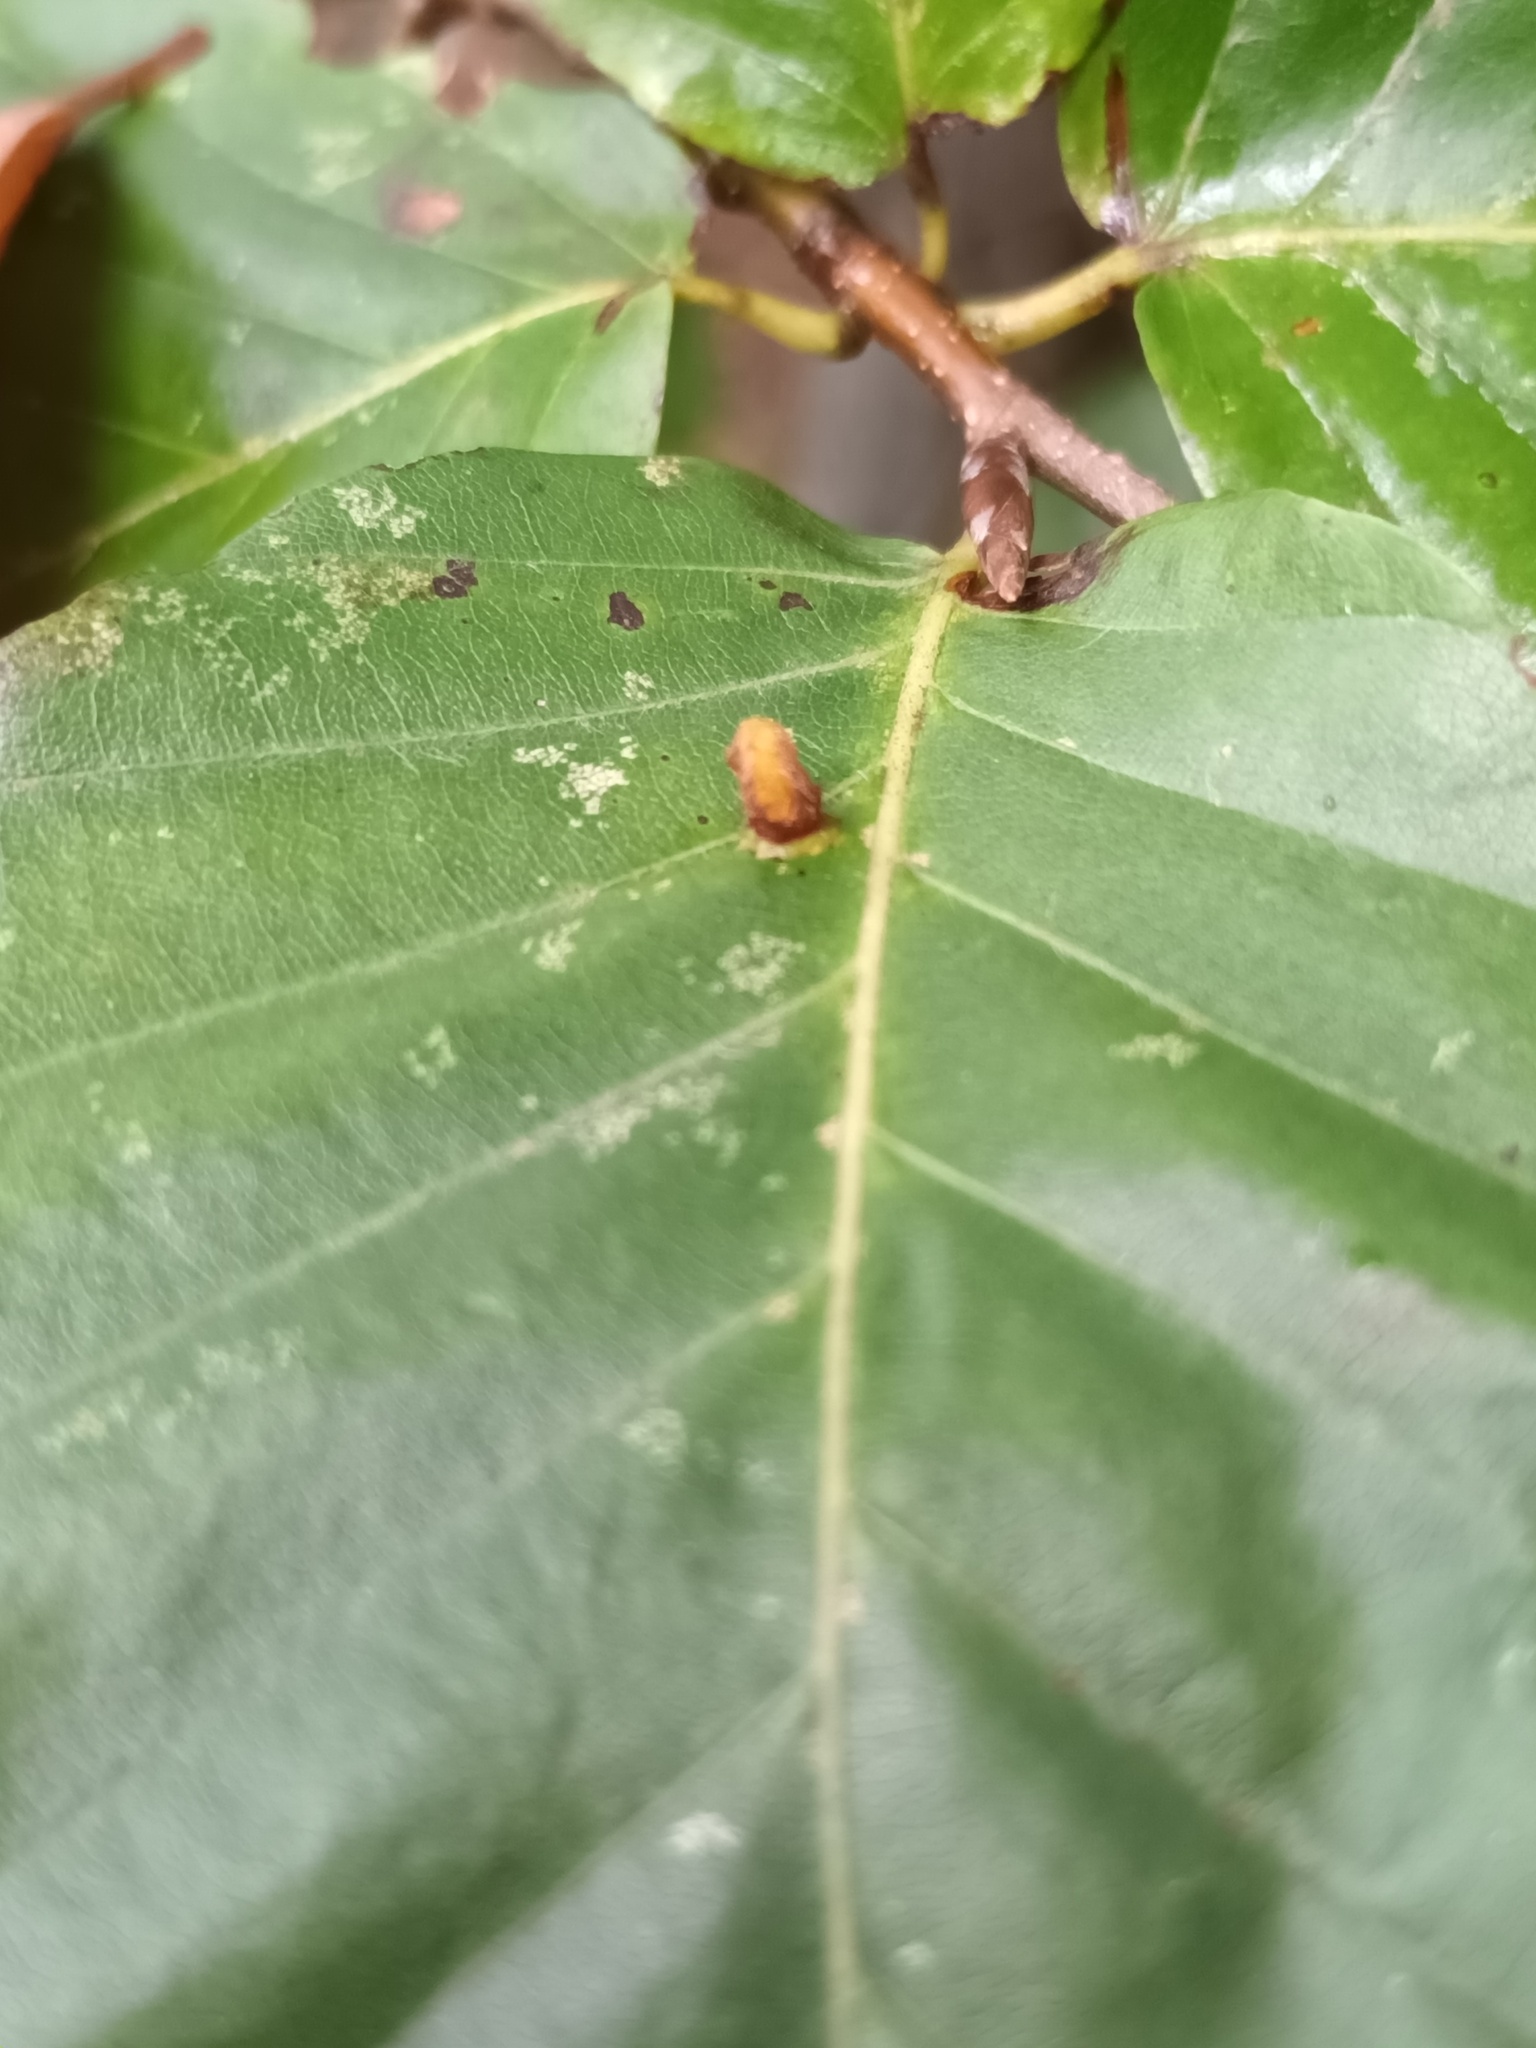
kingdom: Animalia
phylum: Arthropoda
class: Insecta
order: Diptera
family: Cecidomyiidae
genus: Hartigiola
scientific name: Hartigiola annulipes
